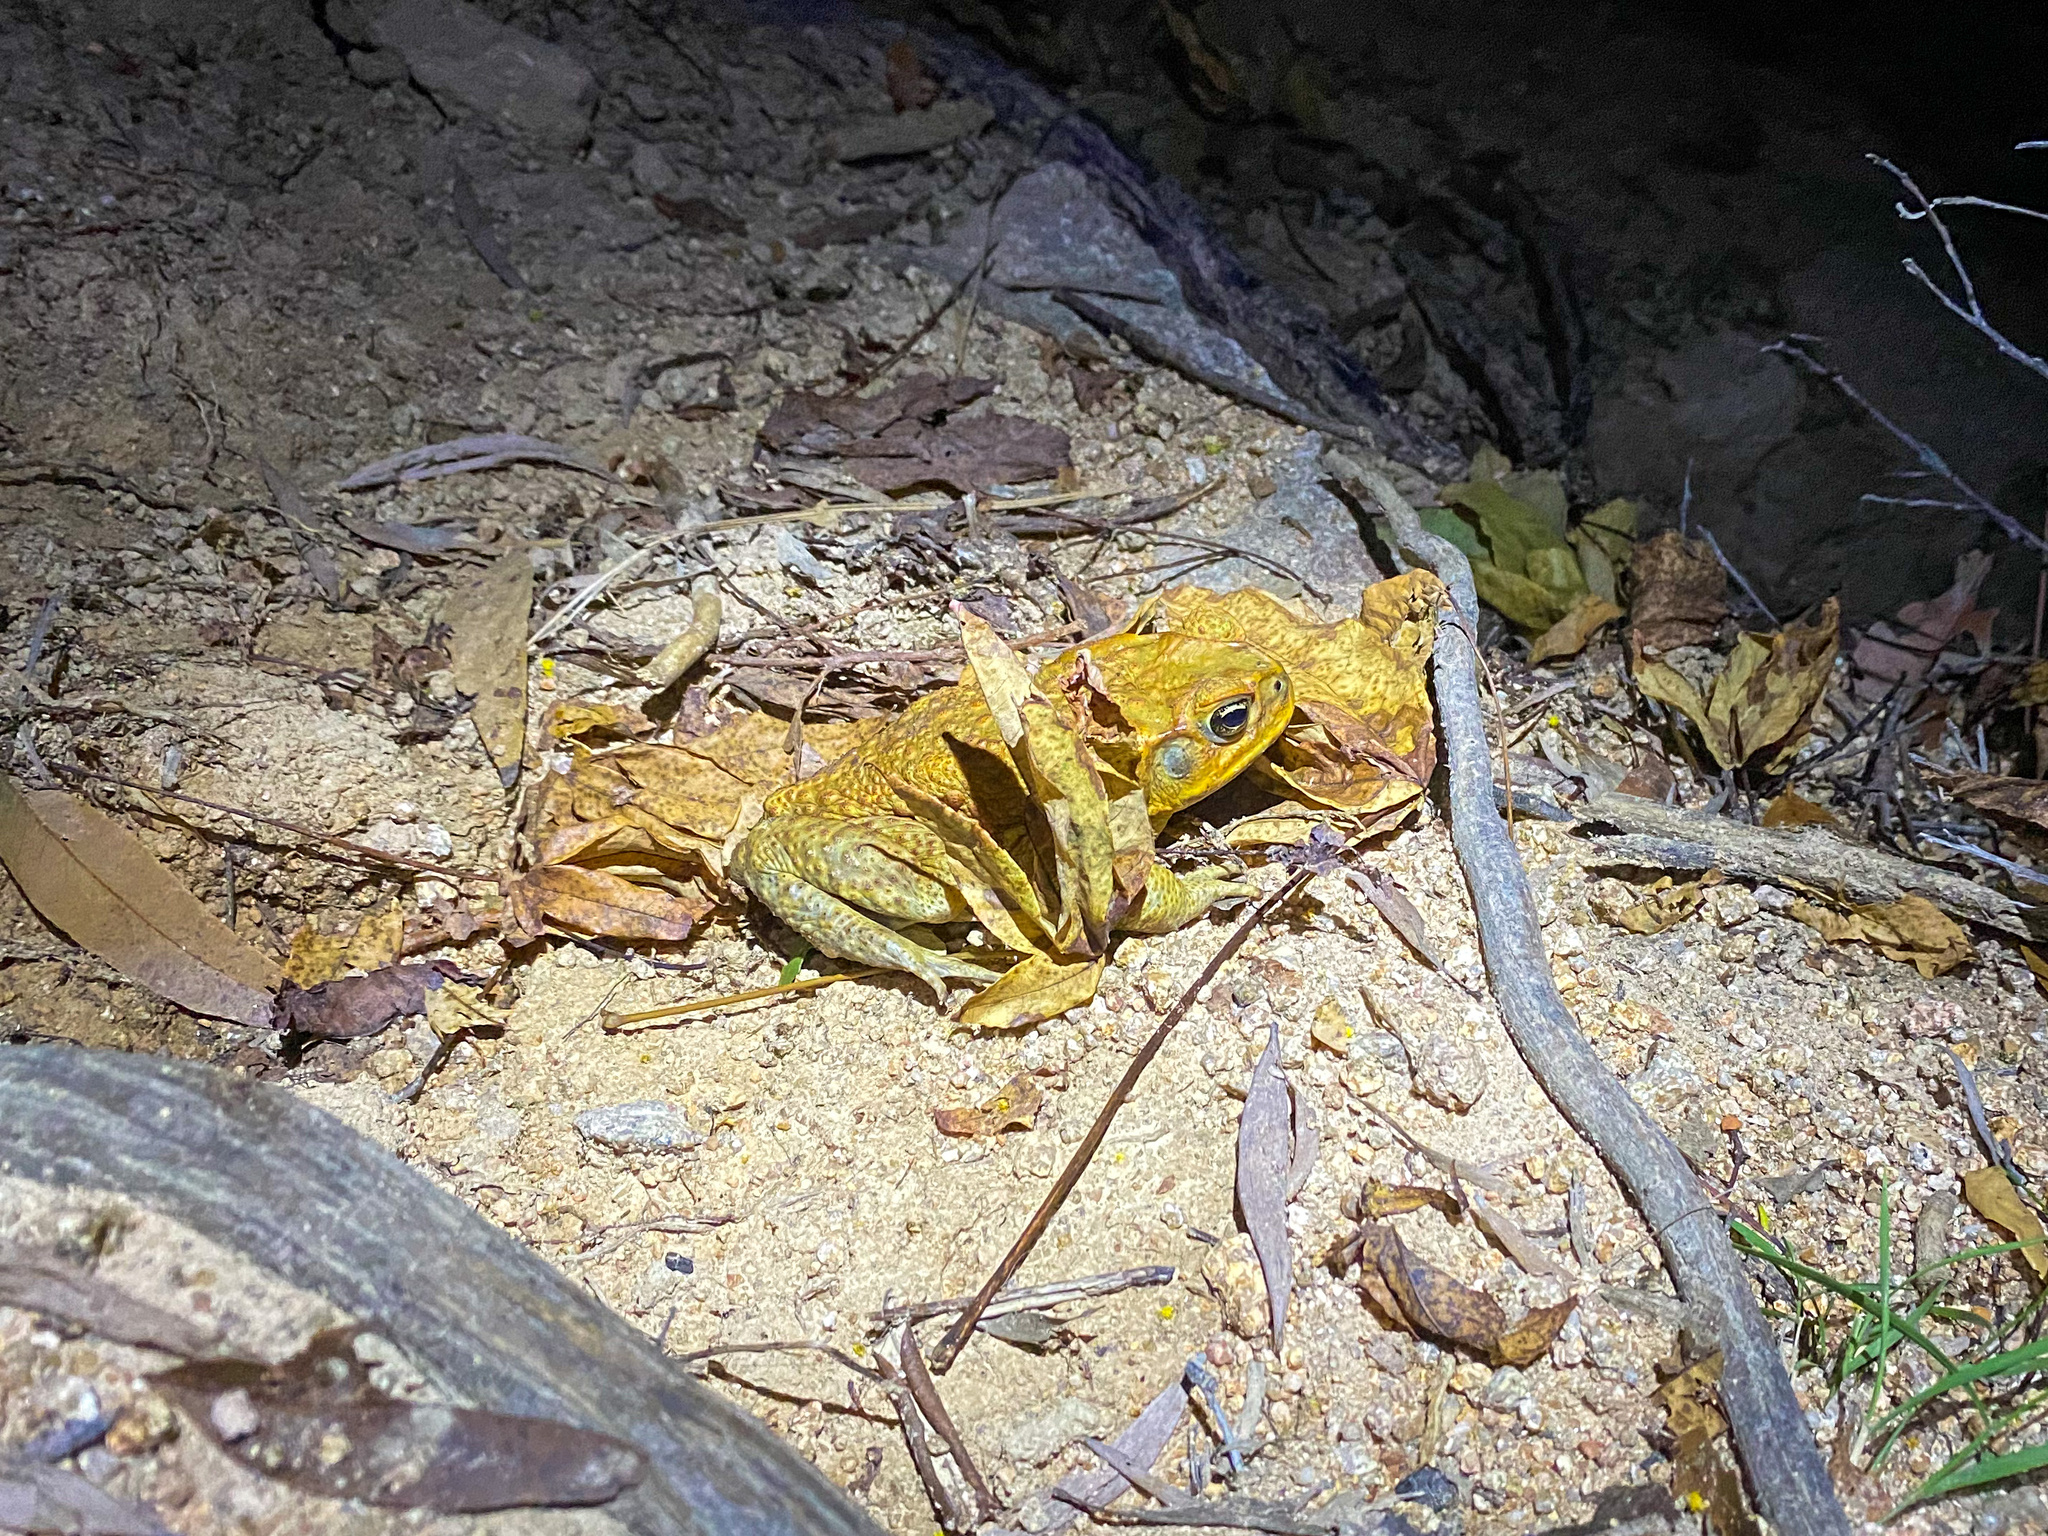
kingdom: Animalia
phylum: Chordata
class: Amphibia
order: Anura
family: Bufonidae
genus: Rhinella
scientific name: Rhinella marina
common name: Cane toad
